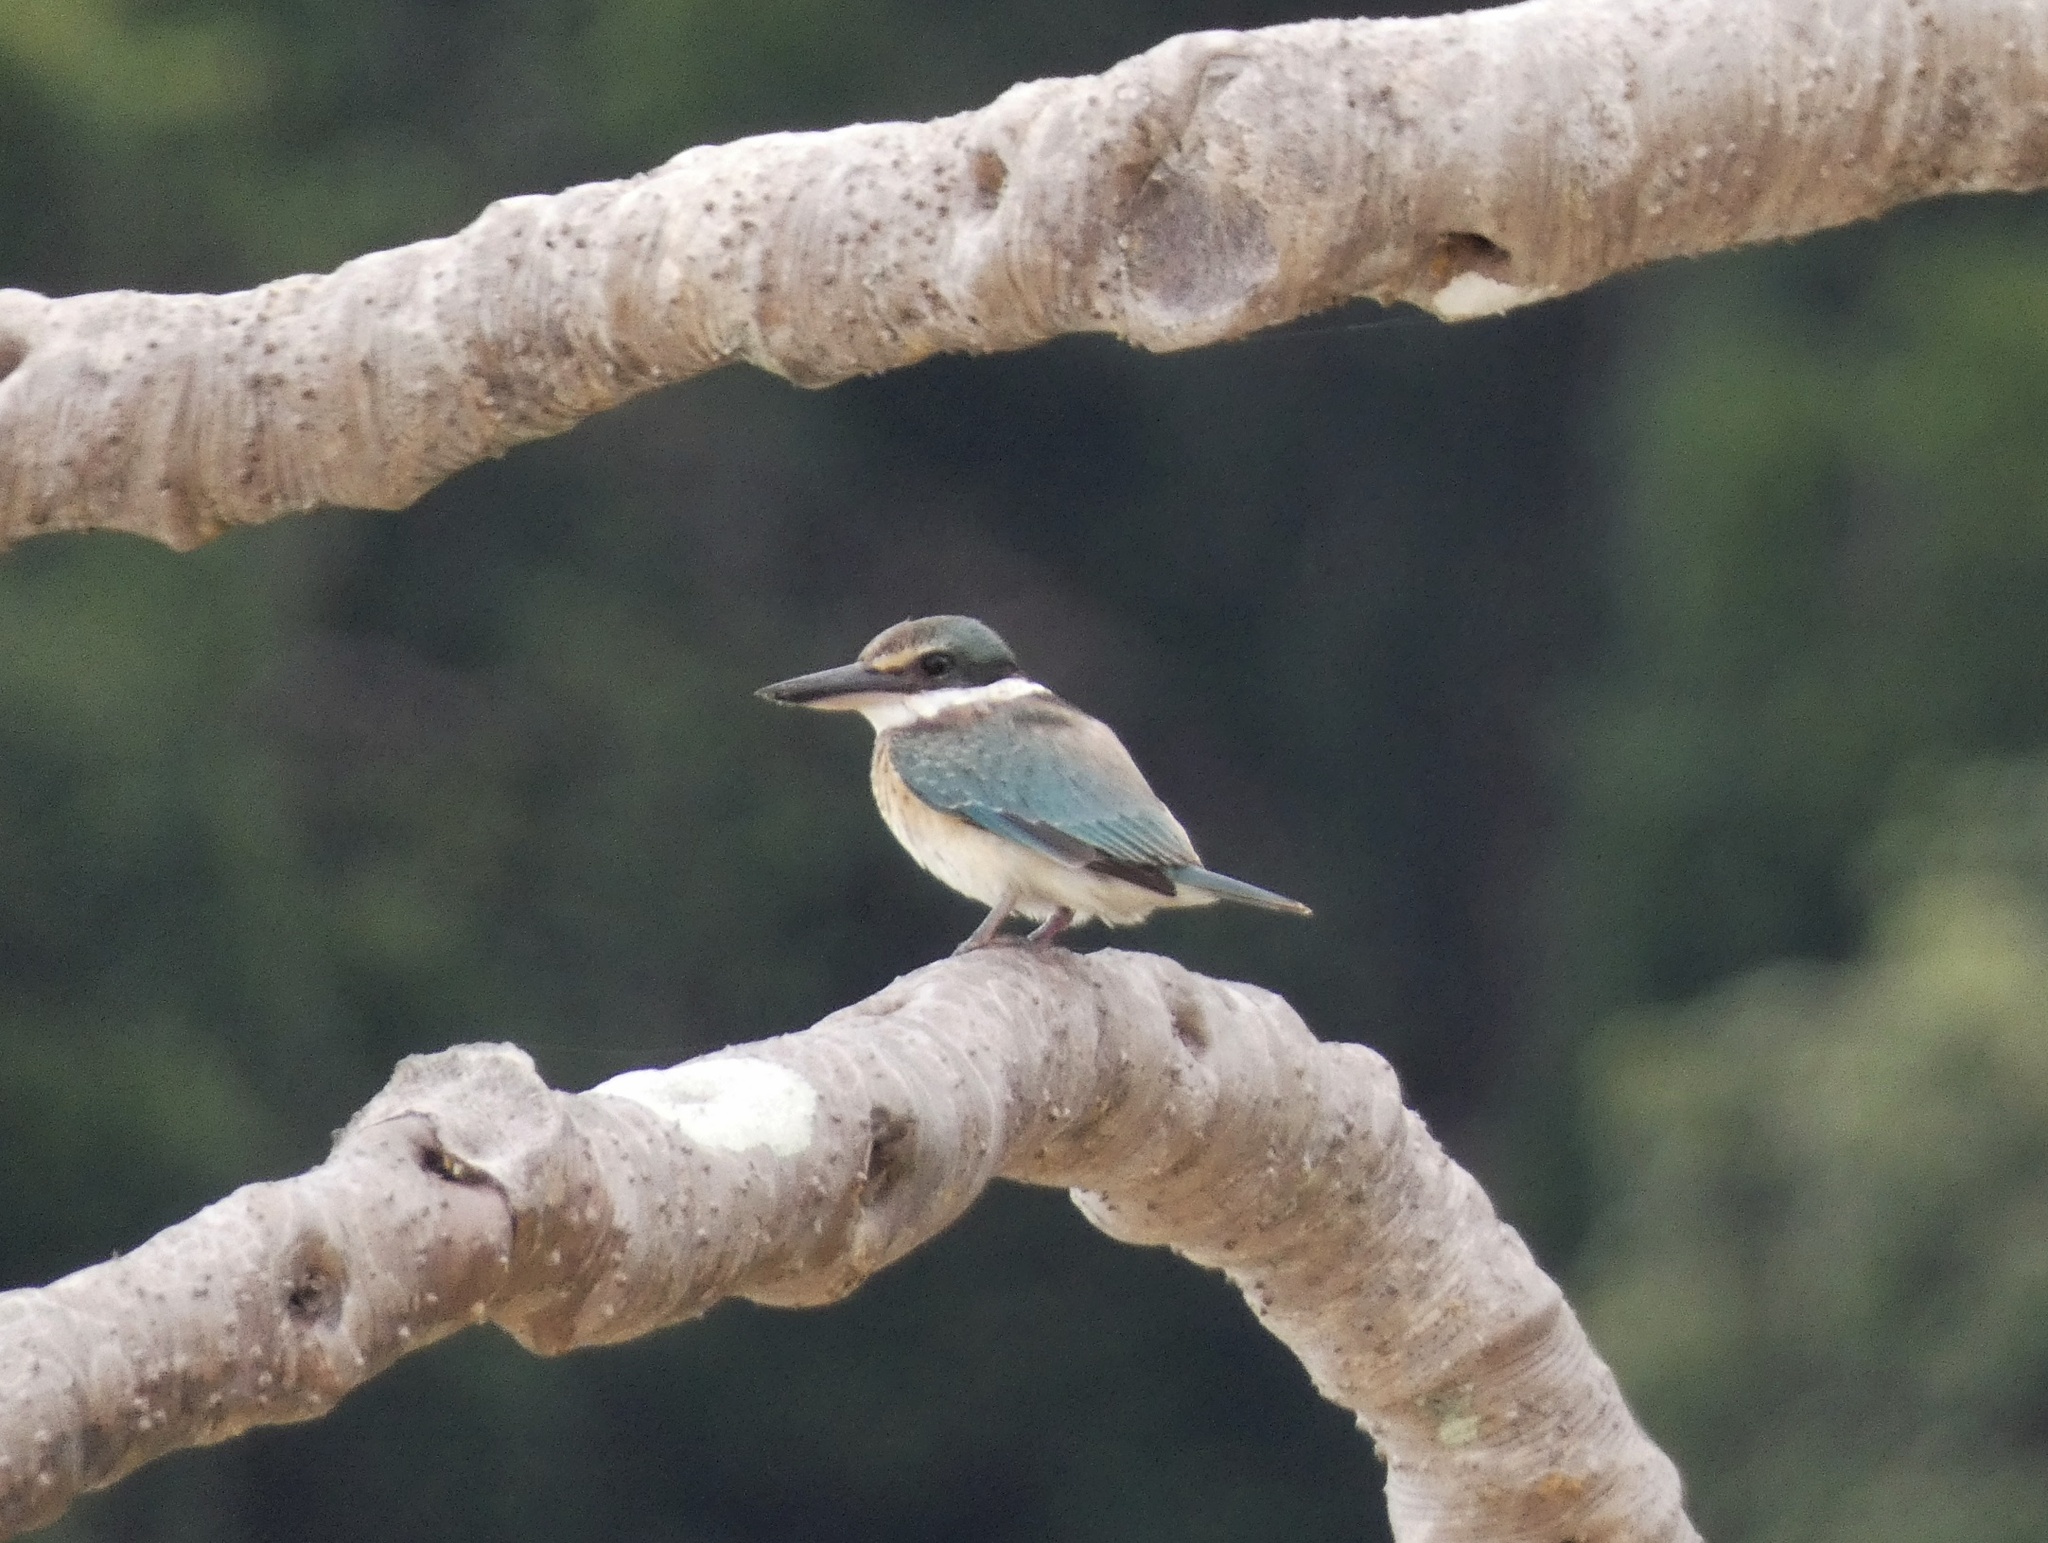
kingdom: Animalia
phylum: Chordata
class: Aves
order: Coraciiformes
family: Alcedinidae
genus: Todiramphus
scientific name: Todiramphus sanctus
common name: Sacred kingfisher
